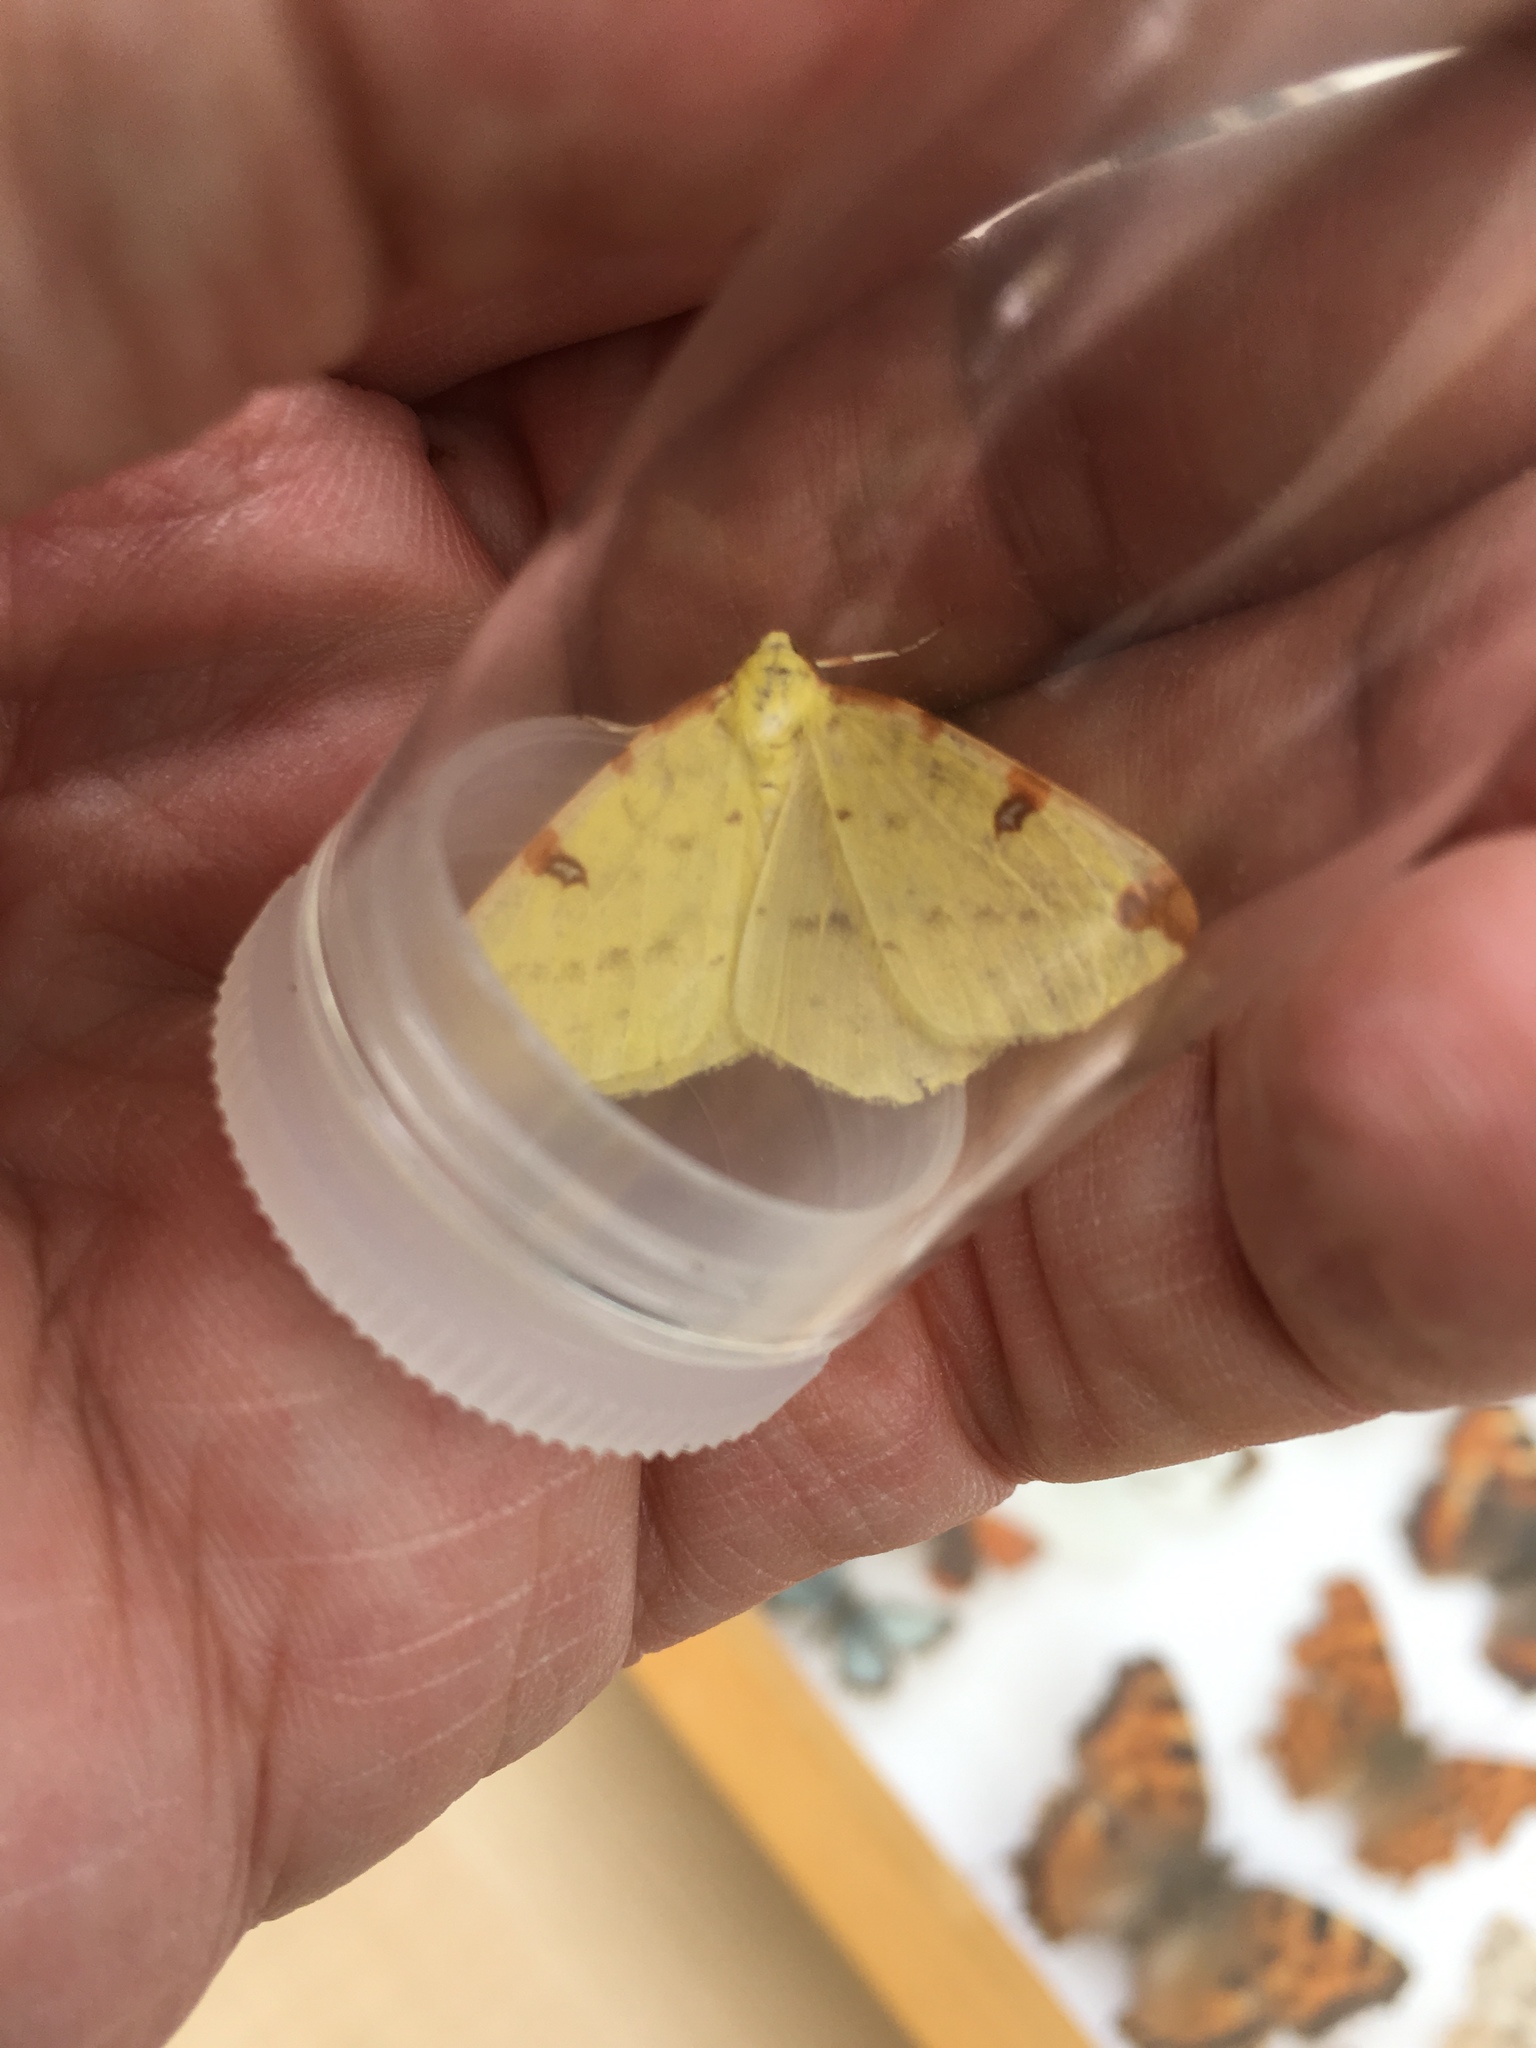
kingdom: Animalia
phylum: Arthropoda
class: Insecta
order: Lepidoptera
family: Geometridae
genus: Opisthograptis
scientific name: Opisthograptis luteolata
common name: Brimstone moth
